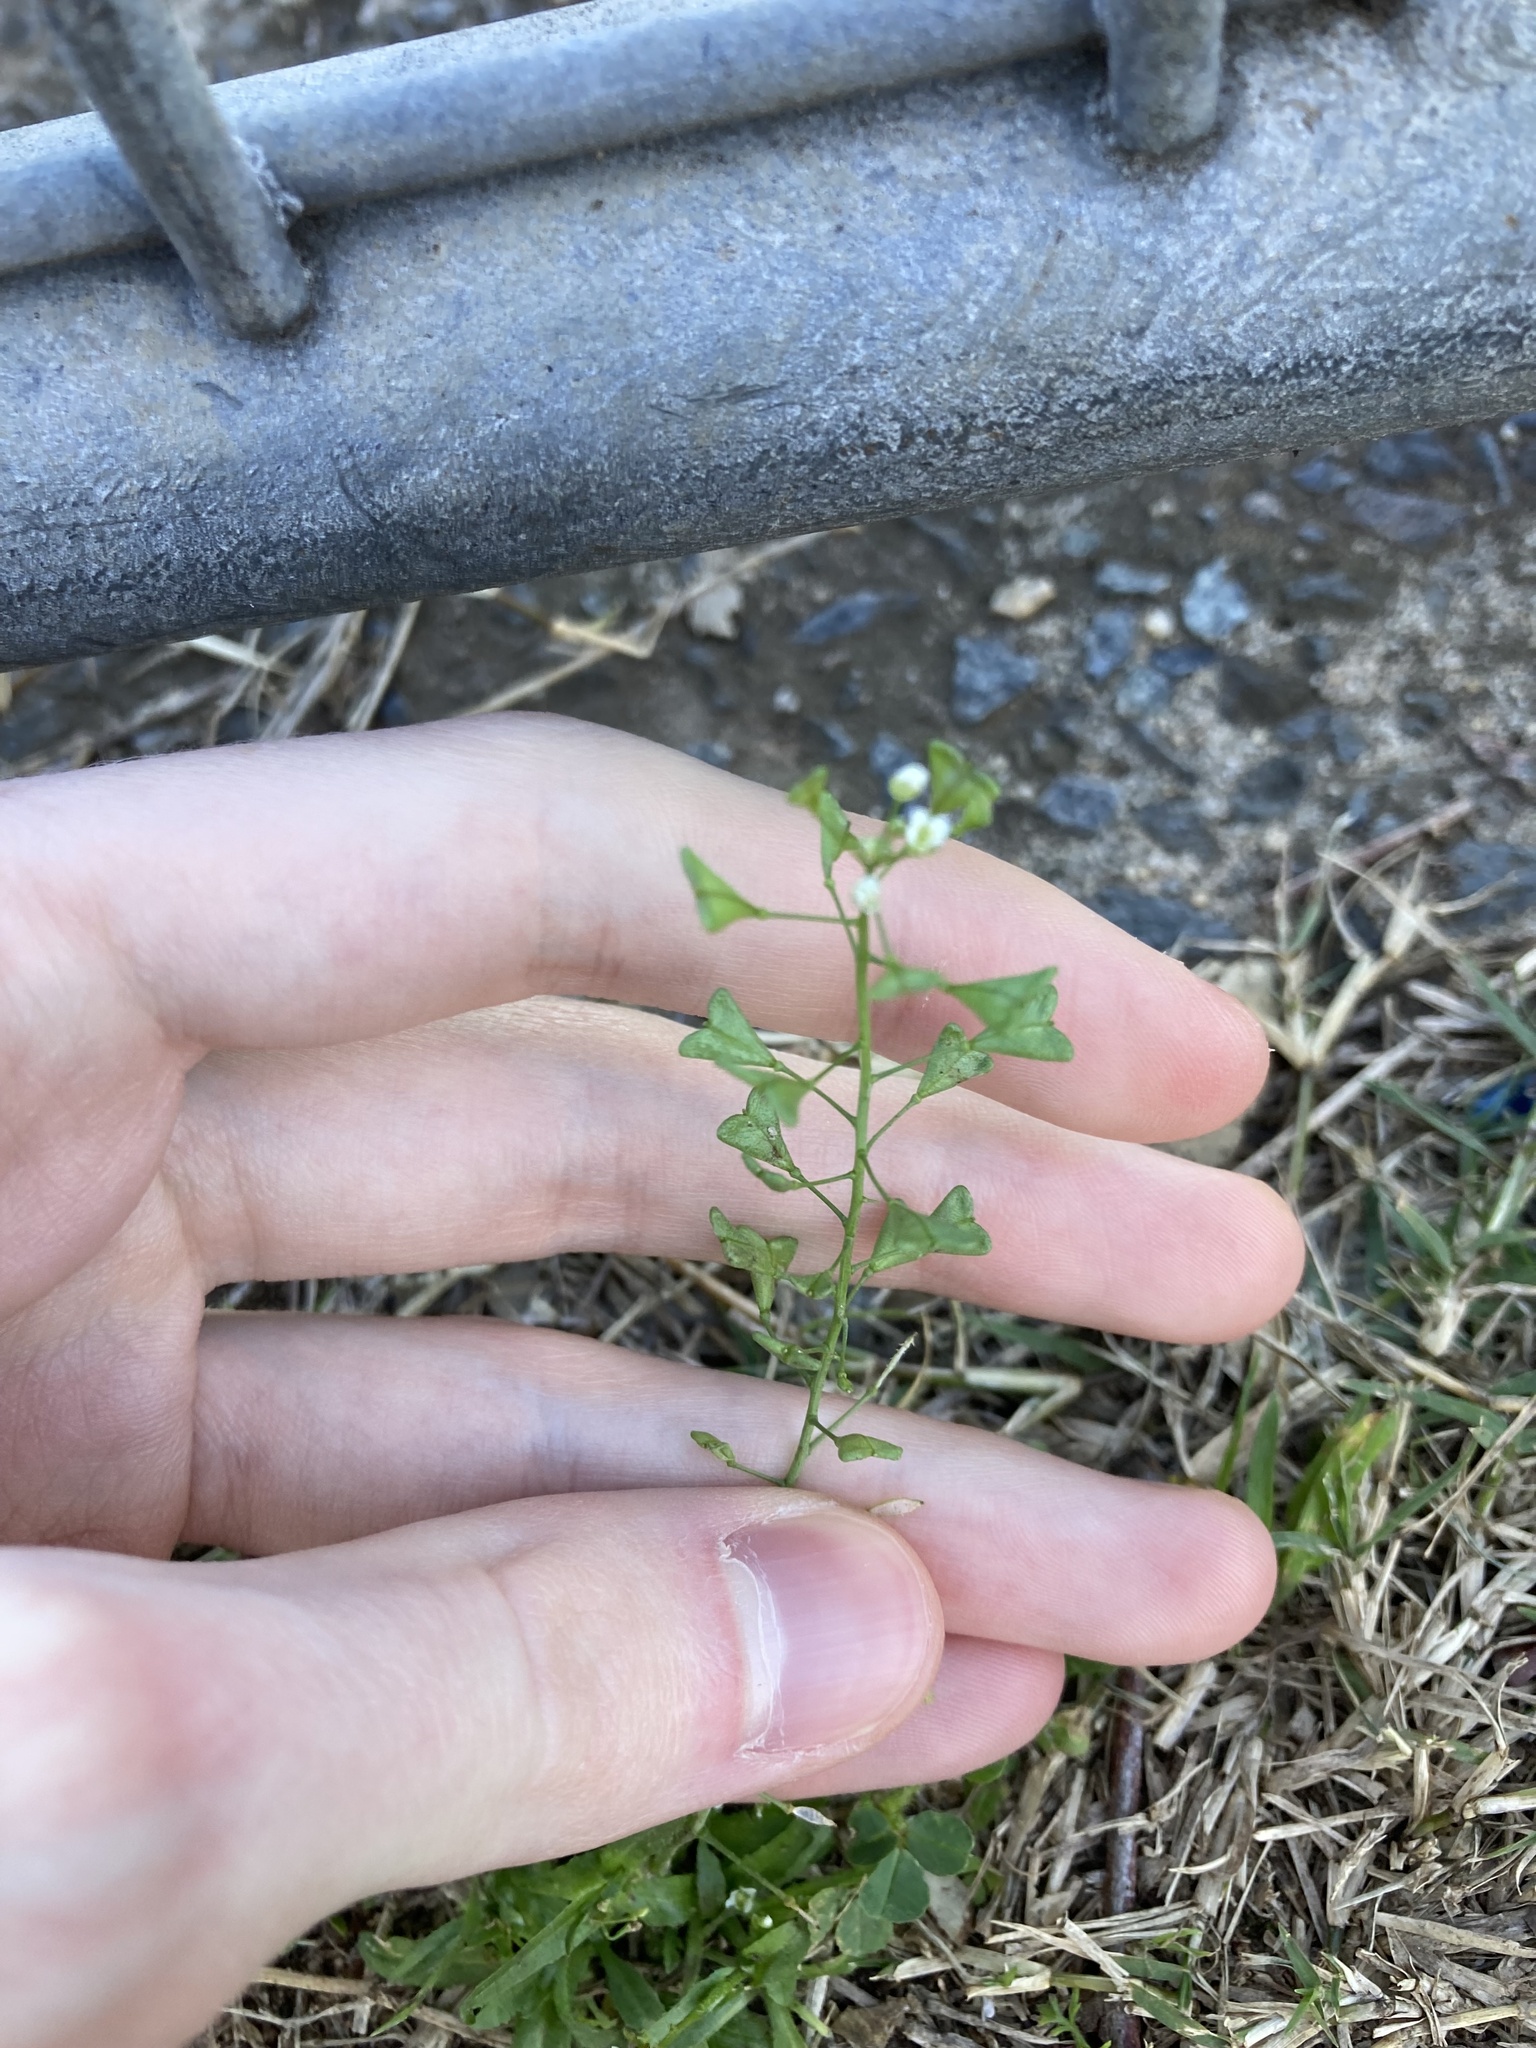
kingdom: Plantae
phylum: Tracheophyta
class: Magnoliopsida
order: Brassicales
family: Brassicaceae
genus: Capsella
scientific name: Capsella bursa-pastoris
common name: Shepherd's purse
